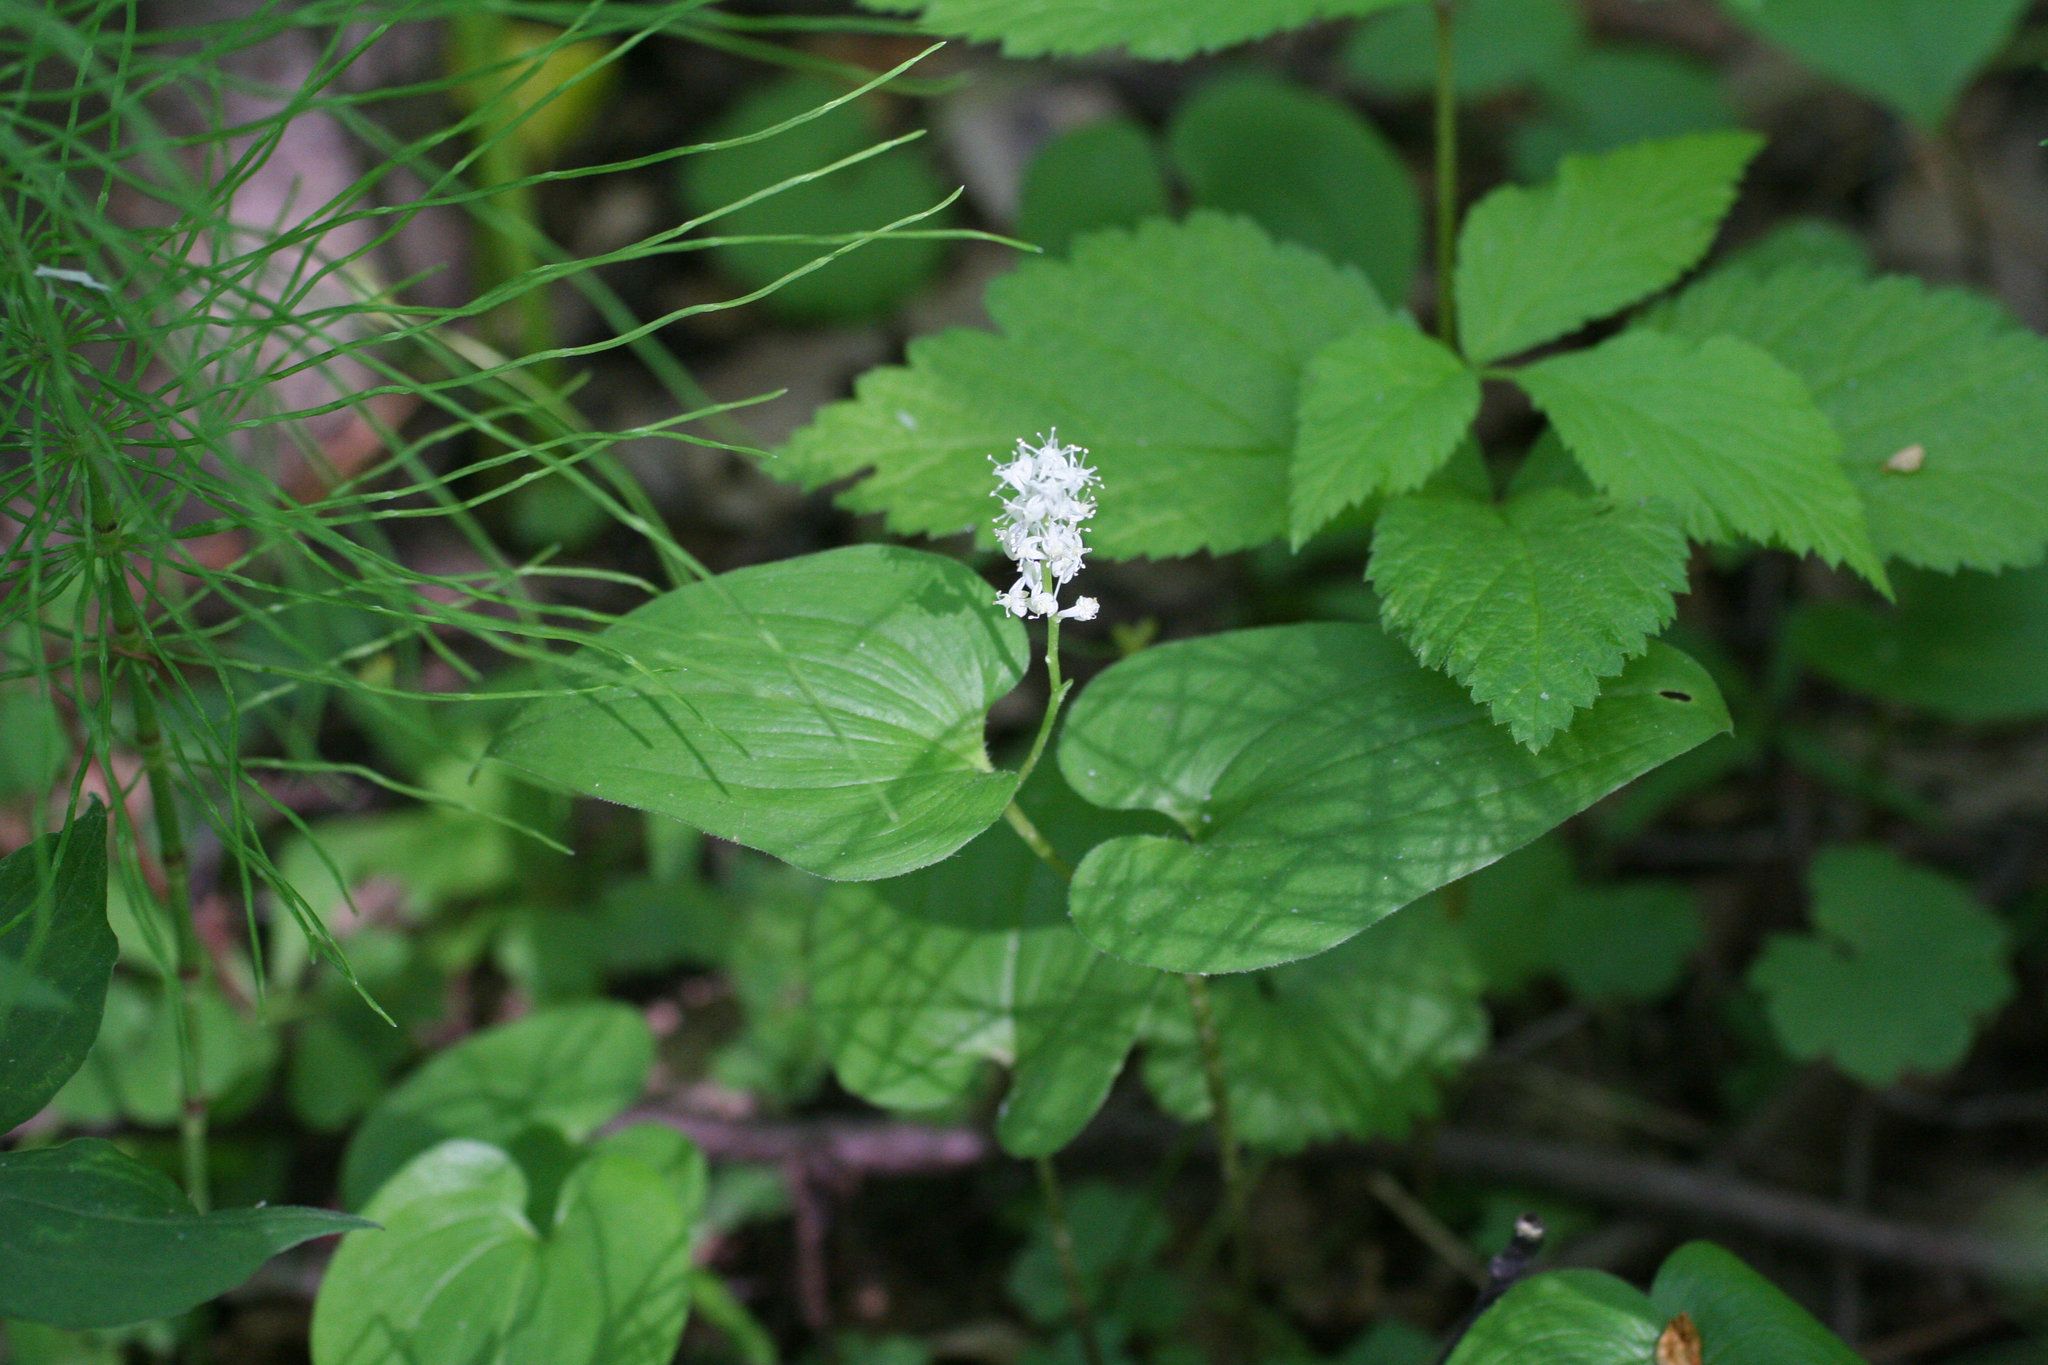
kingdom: Plantae
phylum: Tracheophyta
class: Liliopsida
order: Asparagales
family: Asparagaceae
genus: Maianthemum
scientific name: Maianthemum bifolium
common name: May lily
